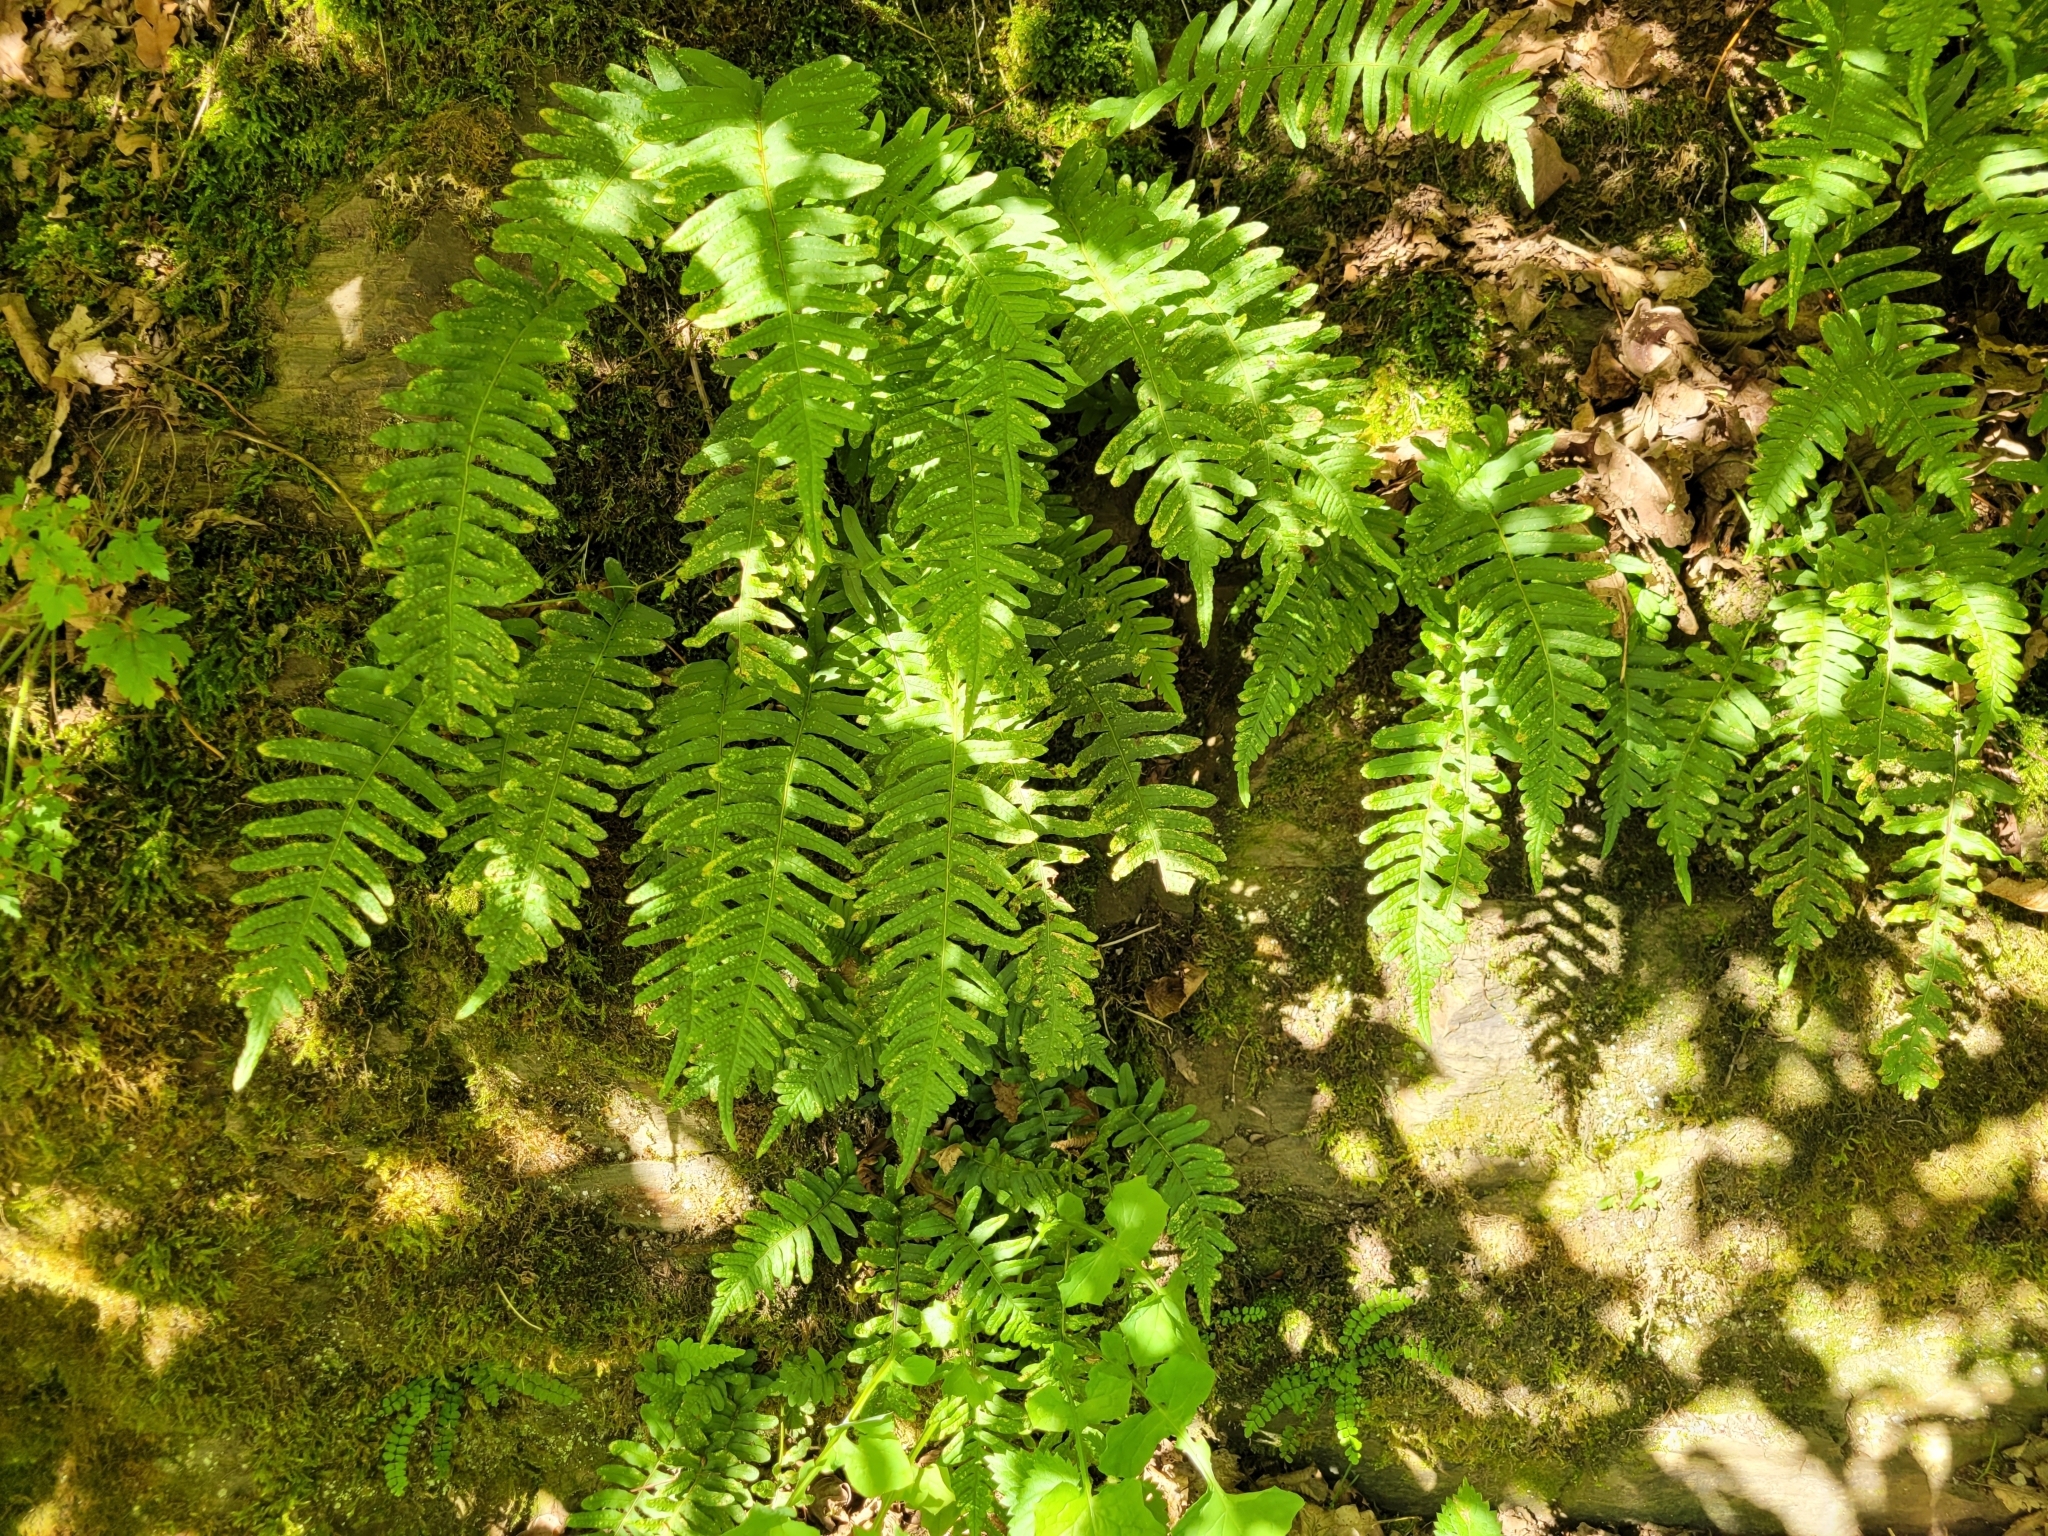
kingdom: Plantae
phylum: Tracheophyta
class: Polypodiopsida
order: Polypodiales
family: Polypodiaceae
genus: Polypodium
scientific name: Polypodium vulgare
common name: Common polypody
